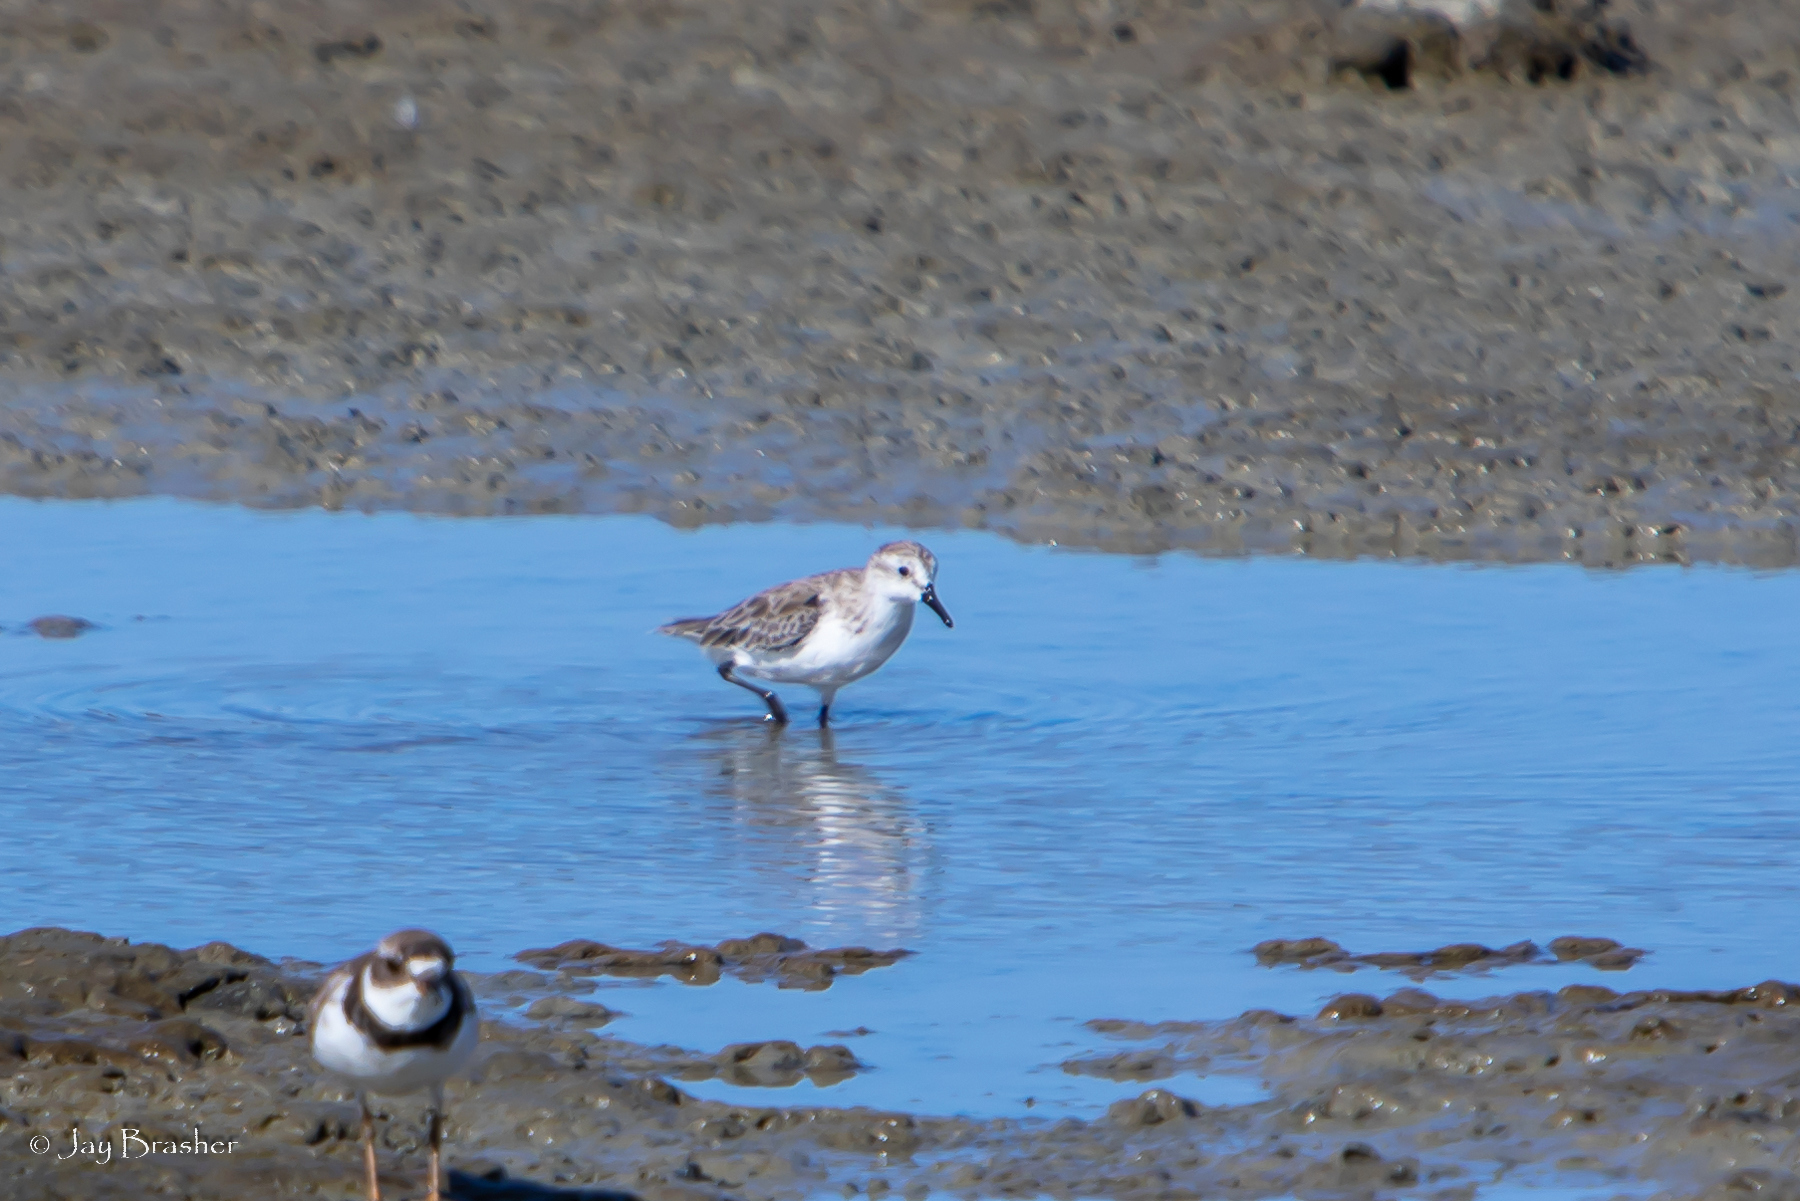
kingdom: Animalia
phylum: Chordata
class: Aves
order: Charadriiformes
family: Scolopacidae
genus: Calidris
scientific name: Calidris minutilla
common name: Least sandpiper
